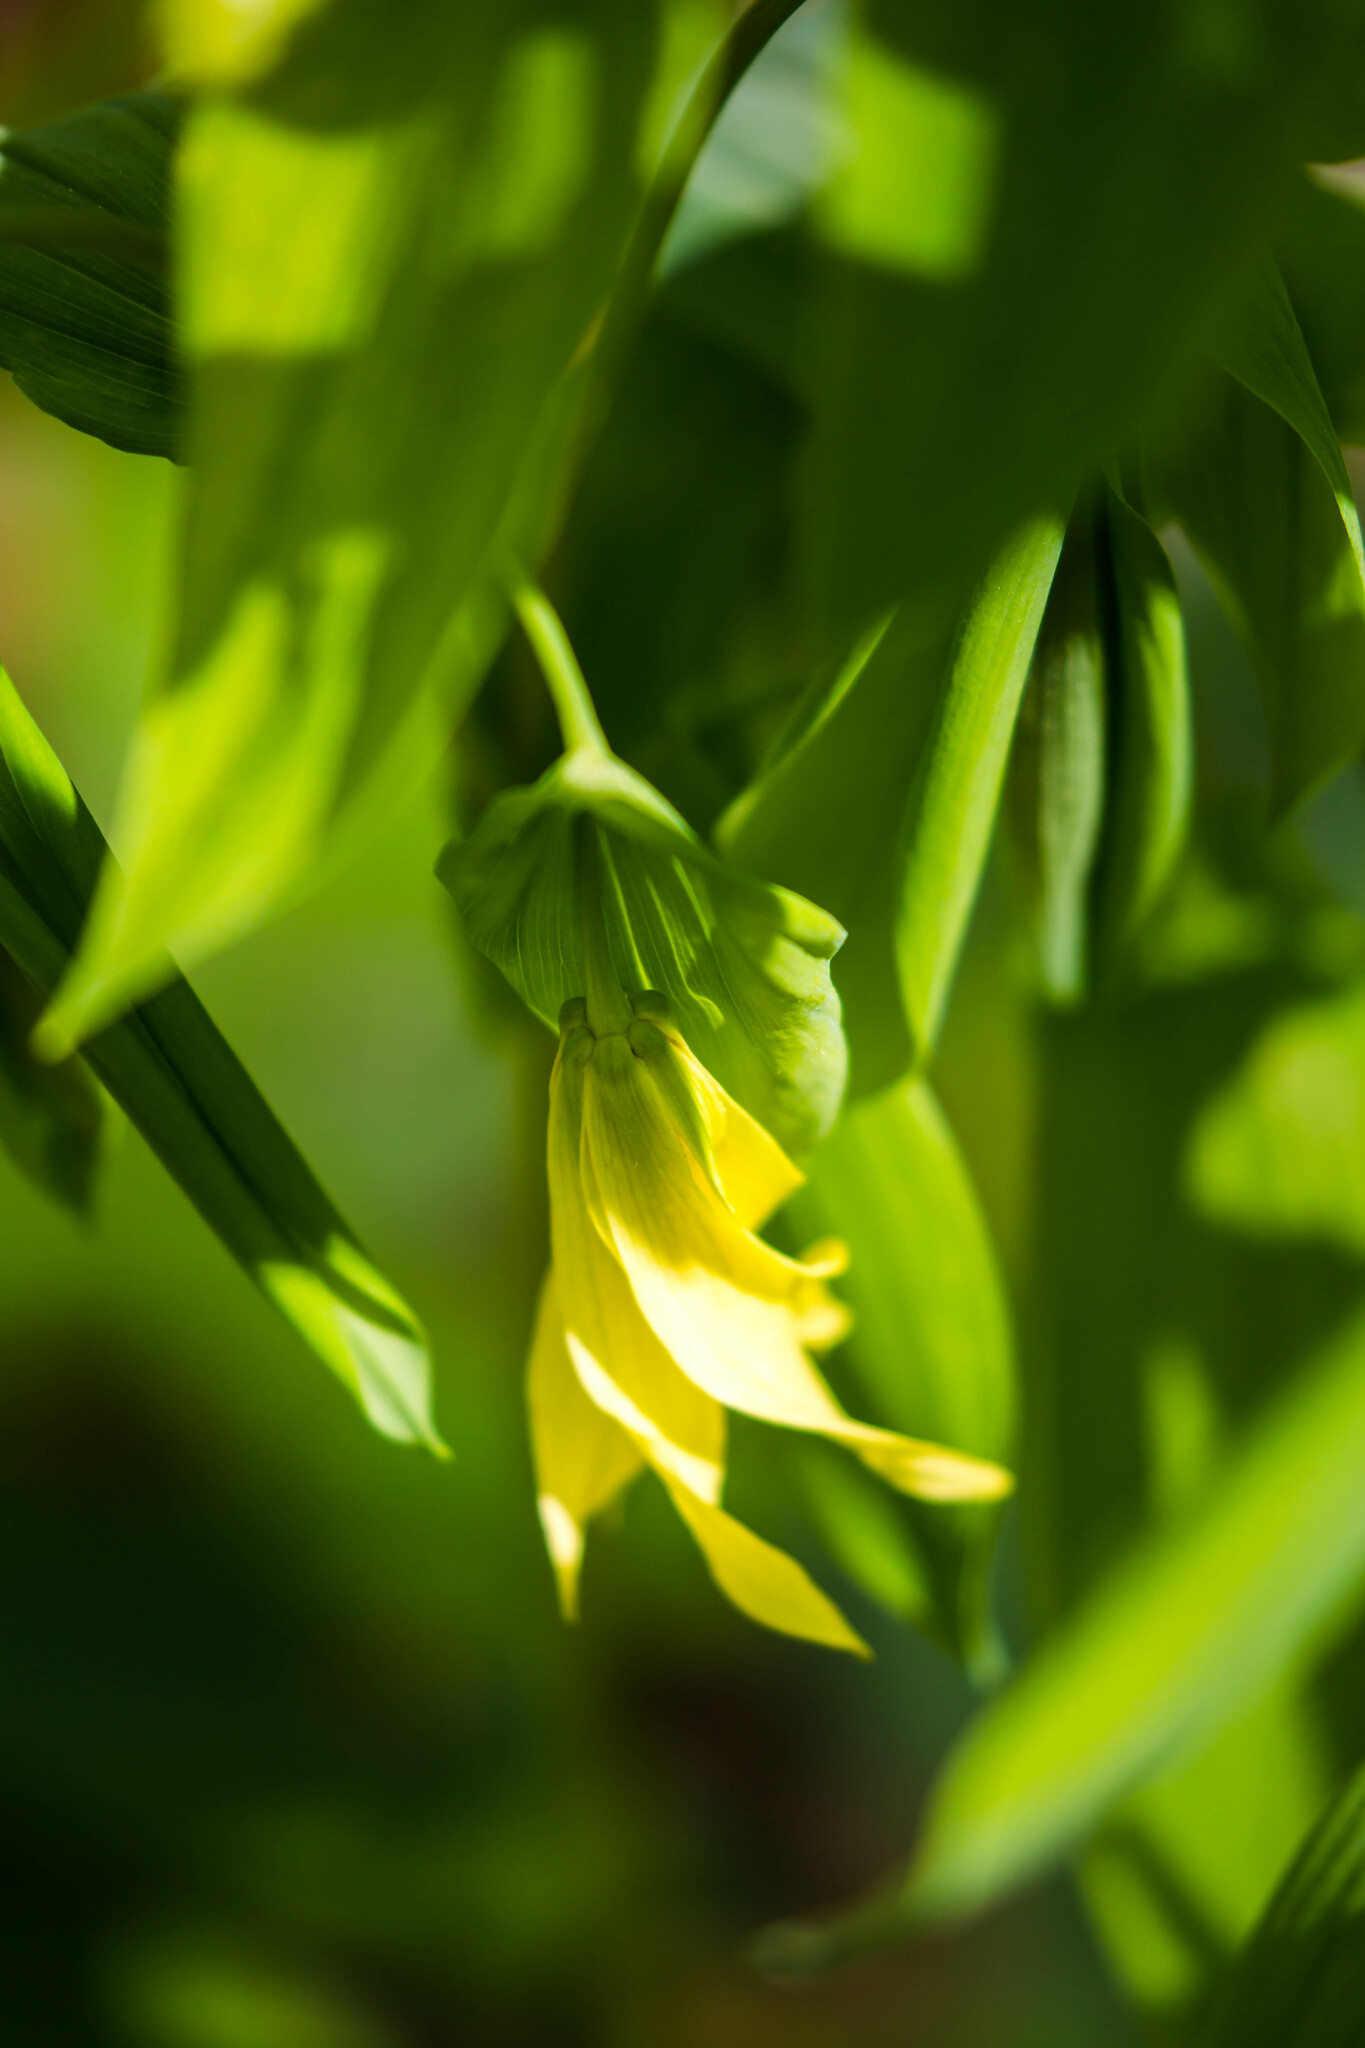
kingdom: Plantae
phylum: Tracheophyta
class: Liliopsida
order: Liliales
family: Colchicaceae
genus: Uvularia
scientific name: Uvularia grandiflora
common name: Bellwort
